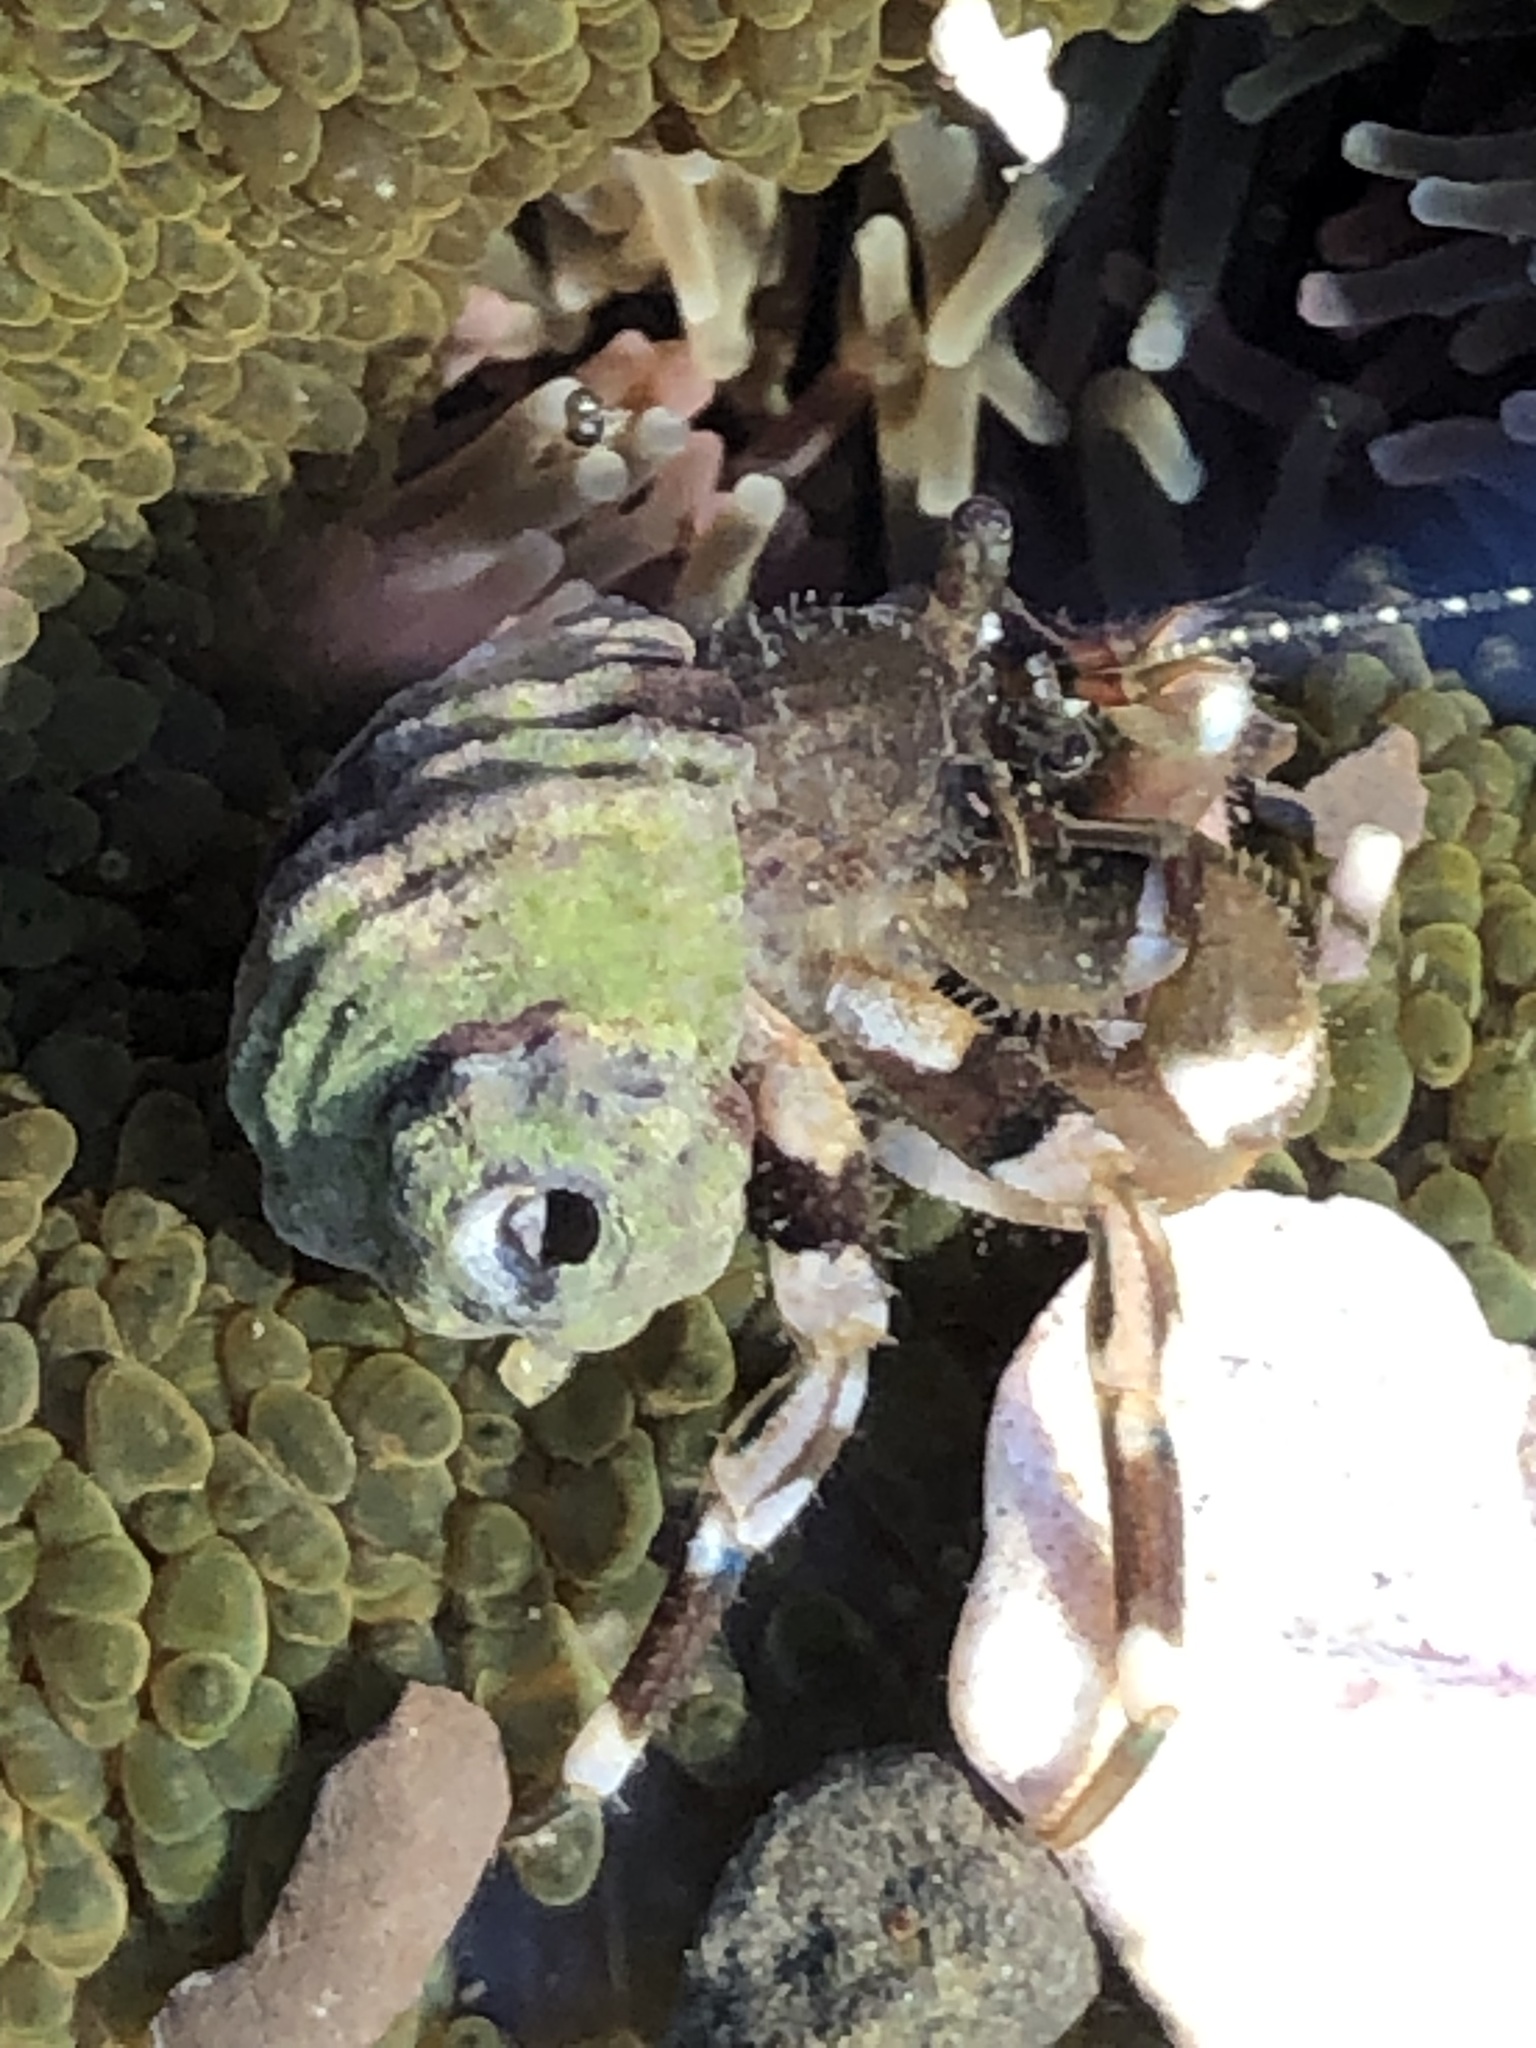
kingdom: Animalia
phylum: Arthropoda
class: Malacostraca
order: Decapoda
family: Paguridae
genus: Pagurus
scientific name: Pagurus hirsutiusculus
